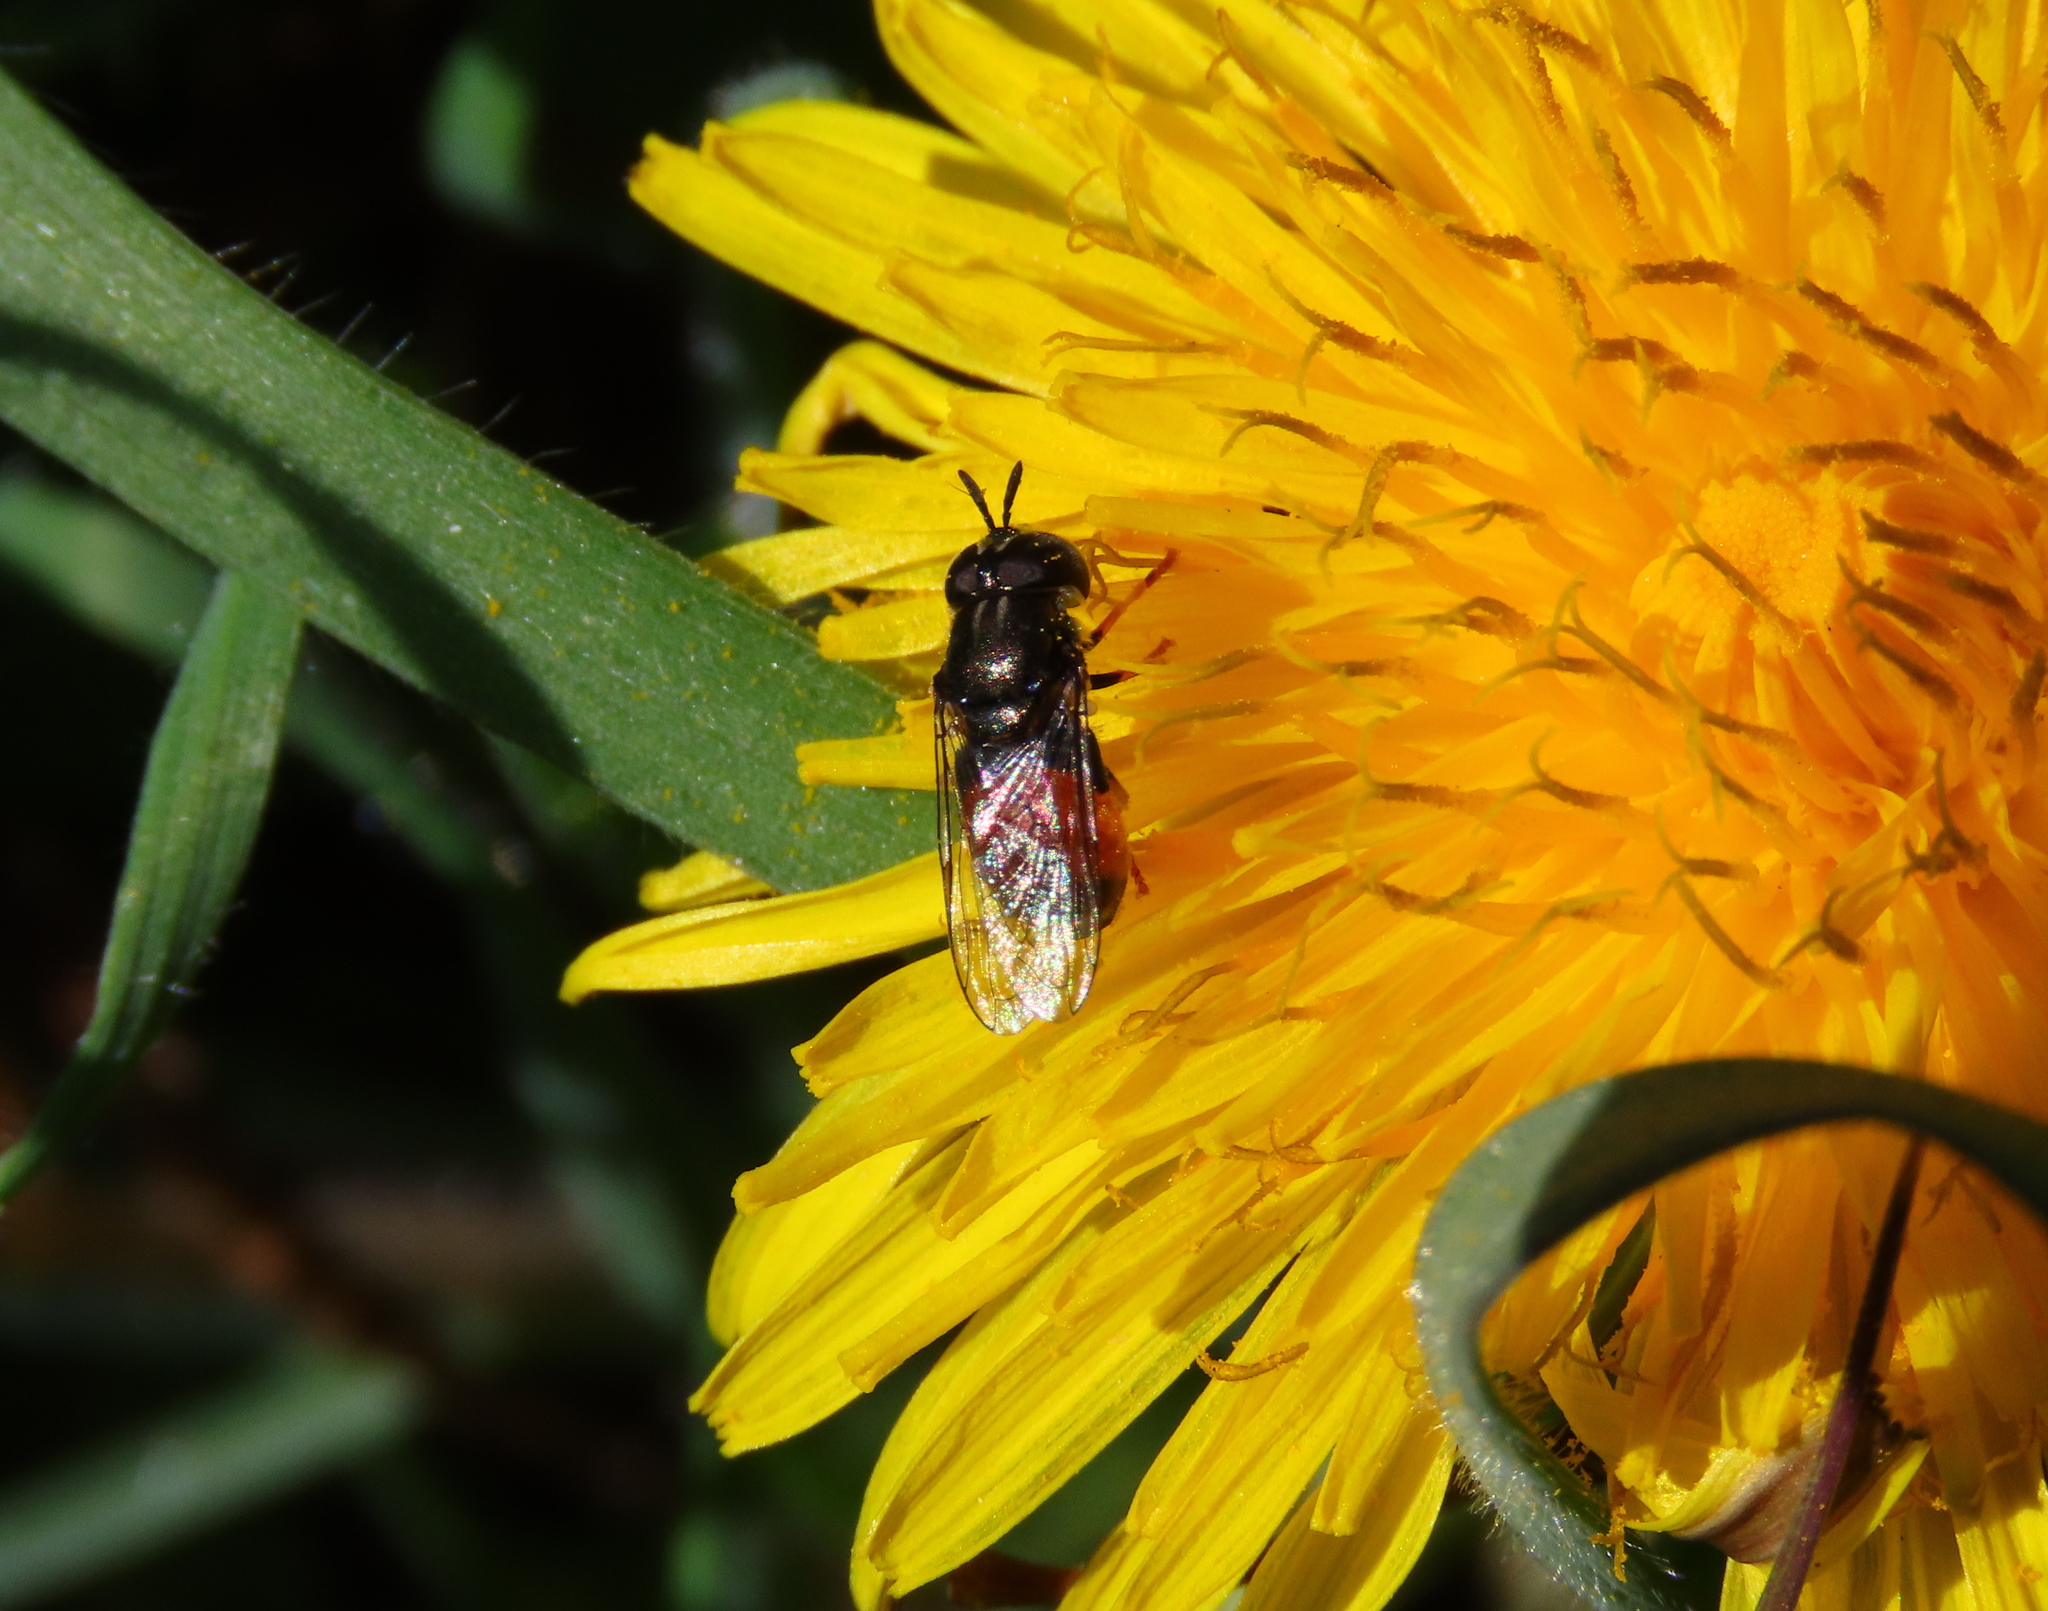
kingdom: Animalia
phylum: Arthropoda
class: Insecta
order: Diptera
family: Syrphidae
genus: Paragus
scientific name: Paragus bicolor
